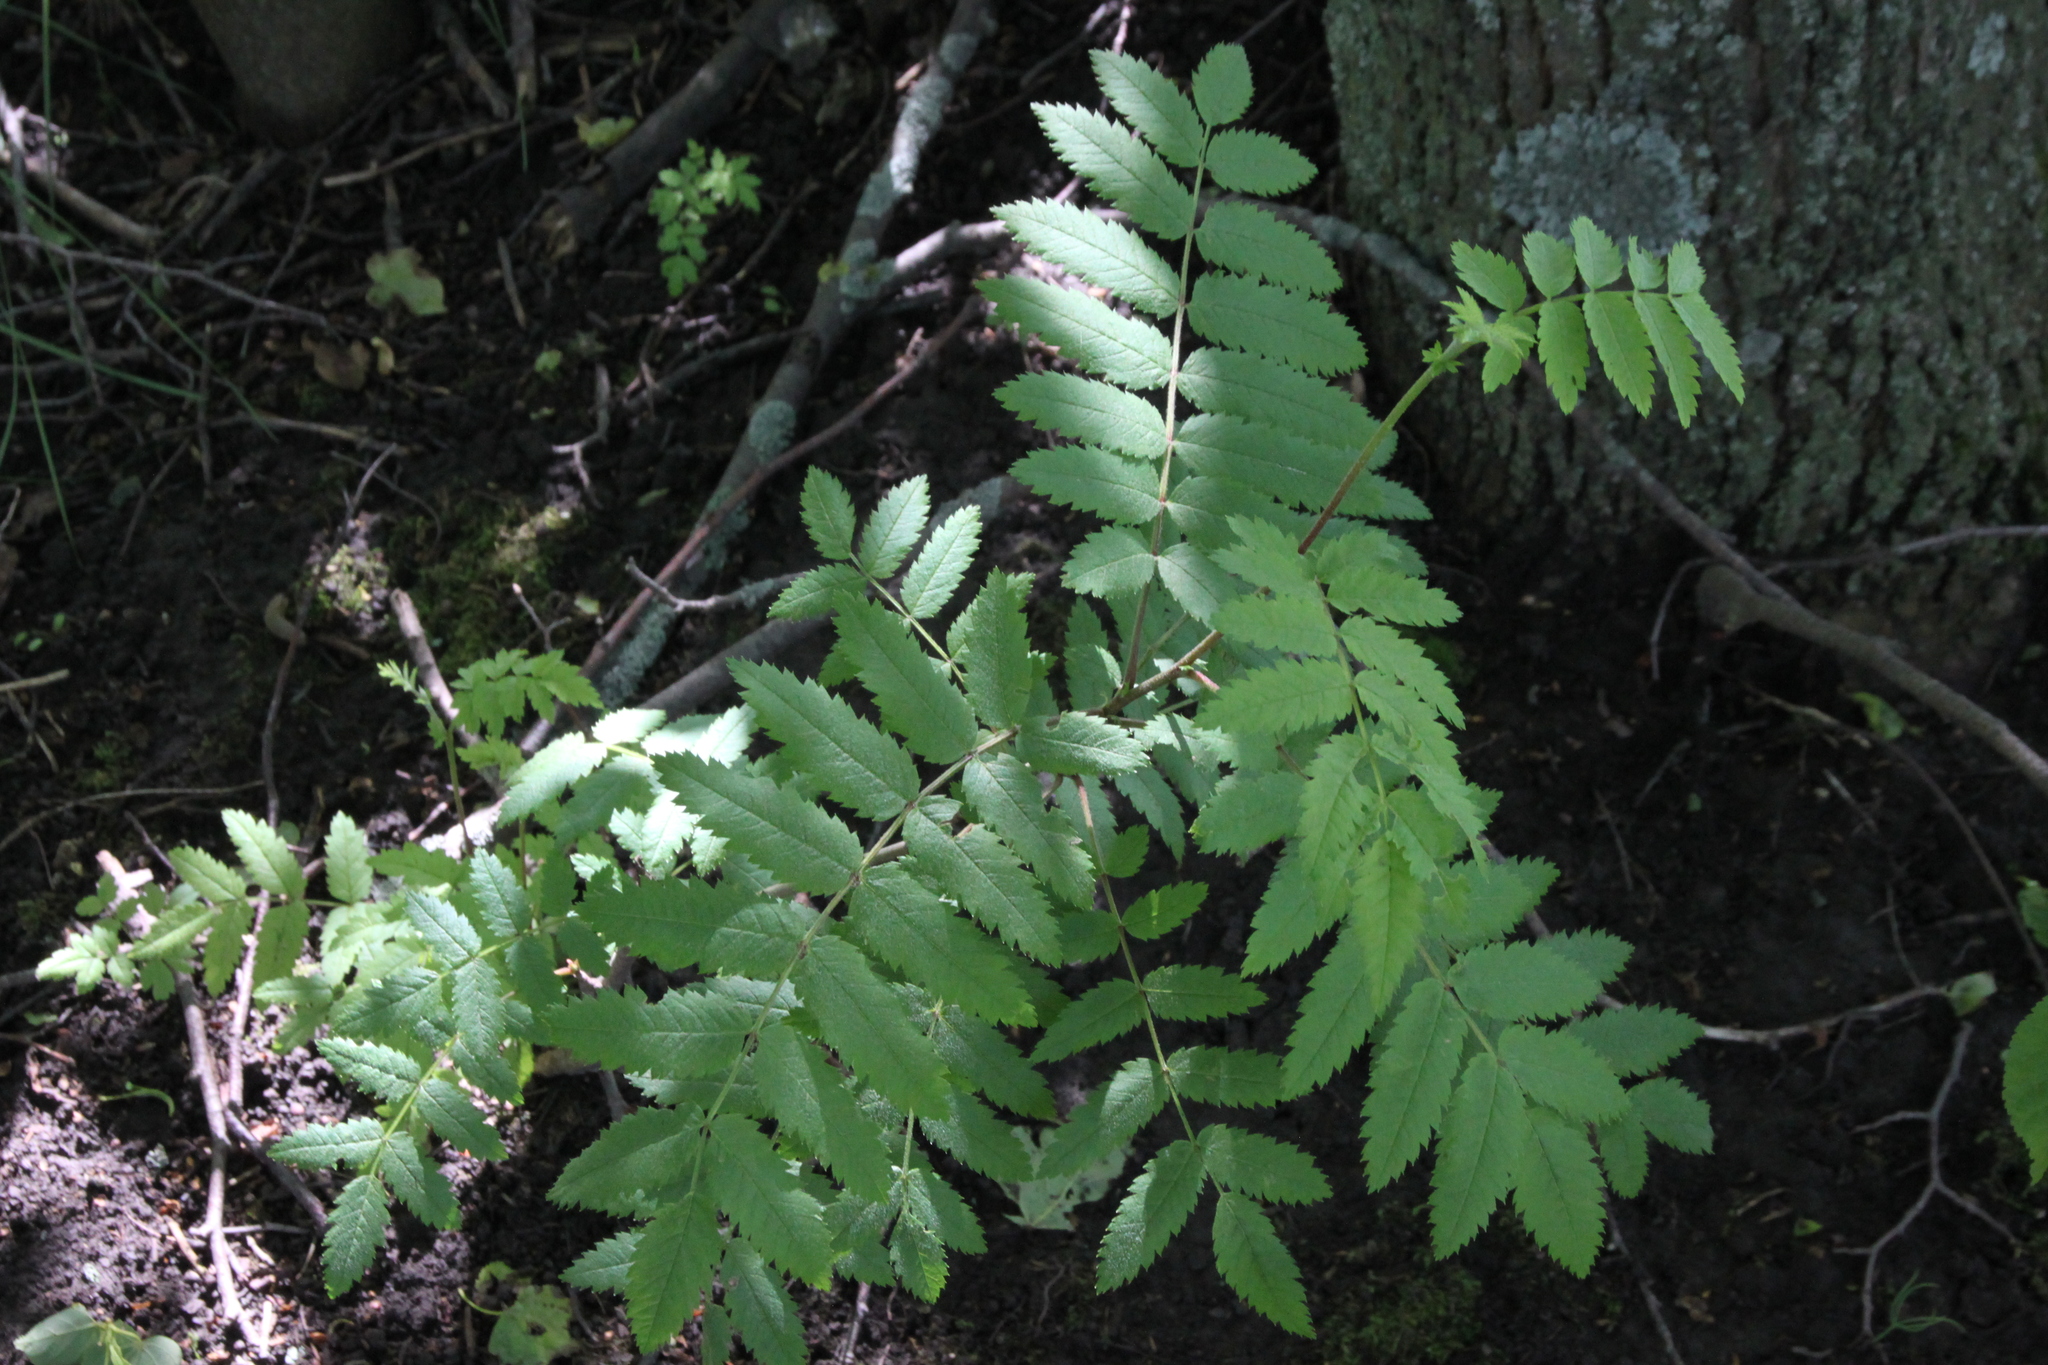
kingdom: Plantae
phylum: Tracheophyta
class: Magnoliopsida
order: Rosales
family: Rosaceae
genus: Sorbus
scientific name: Sorbus aucuparia
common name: Rowan
